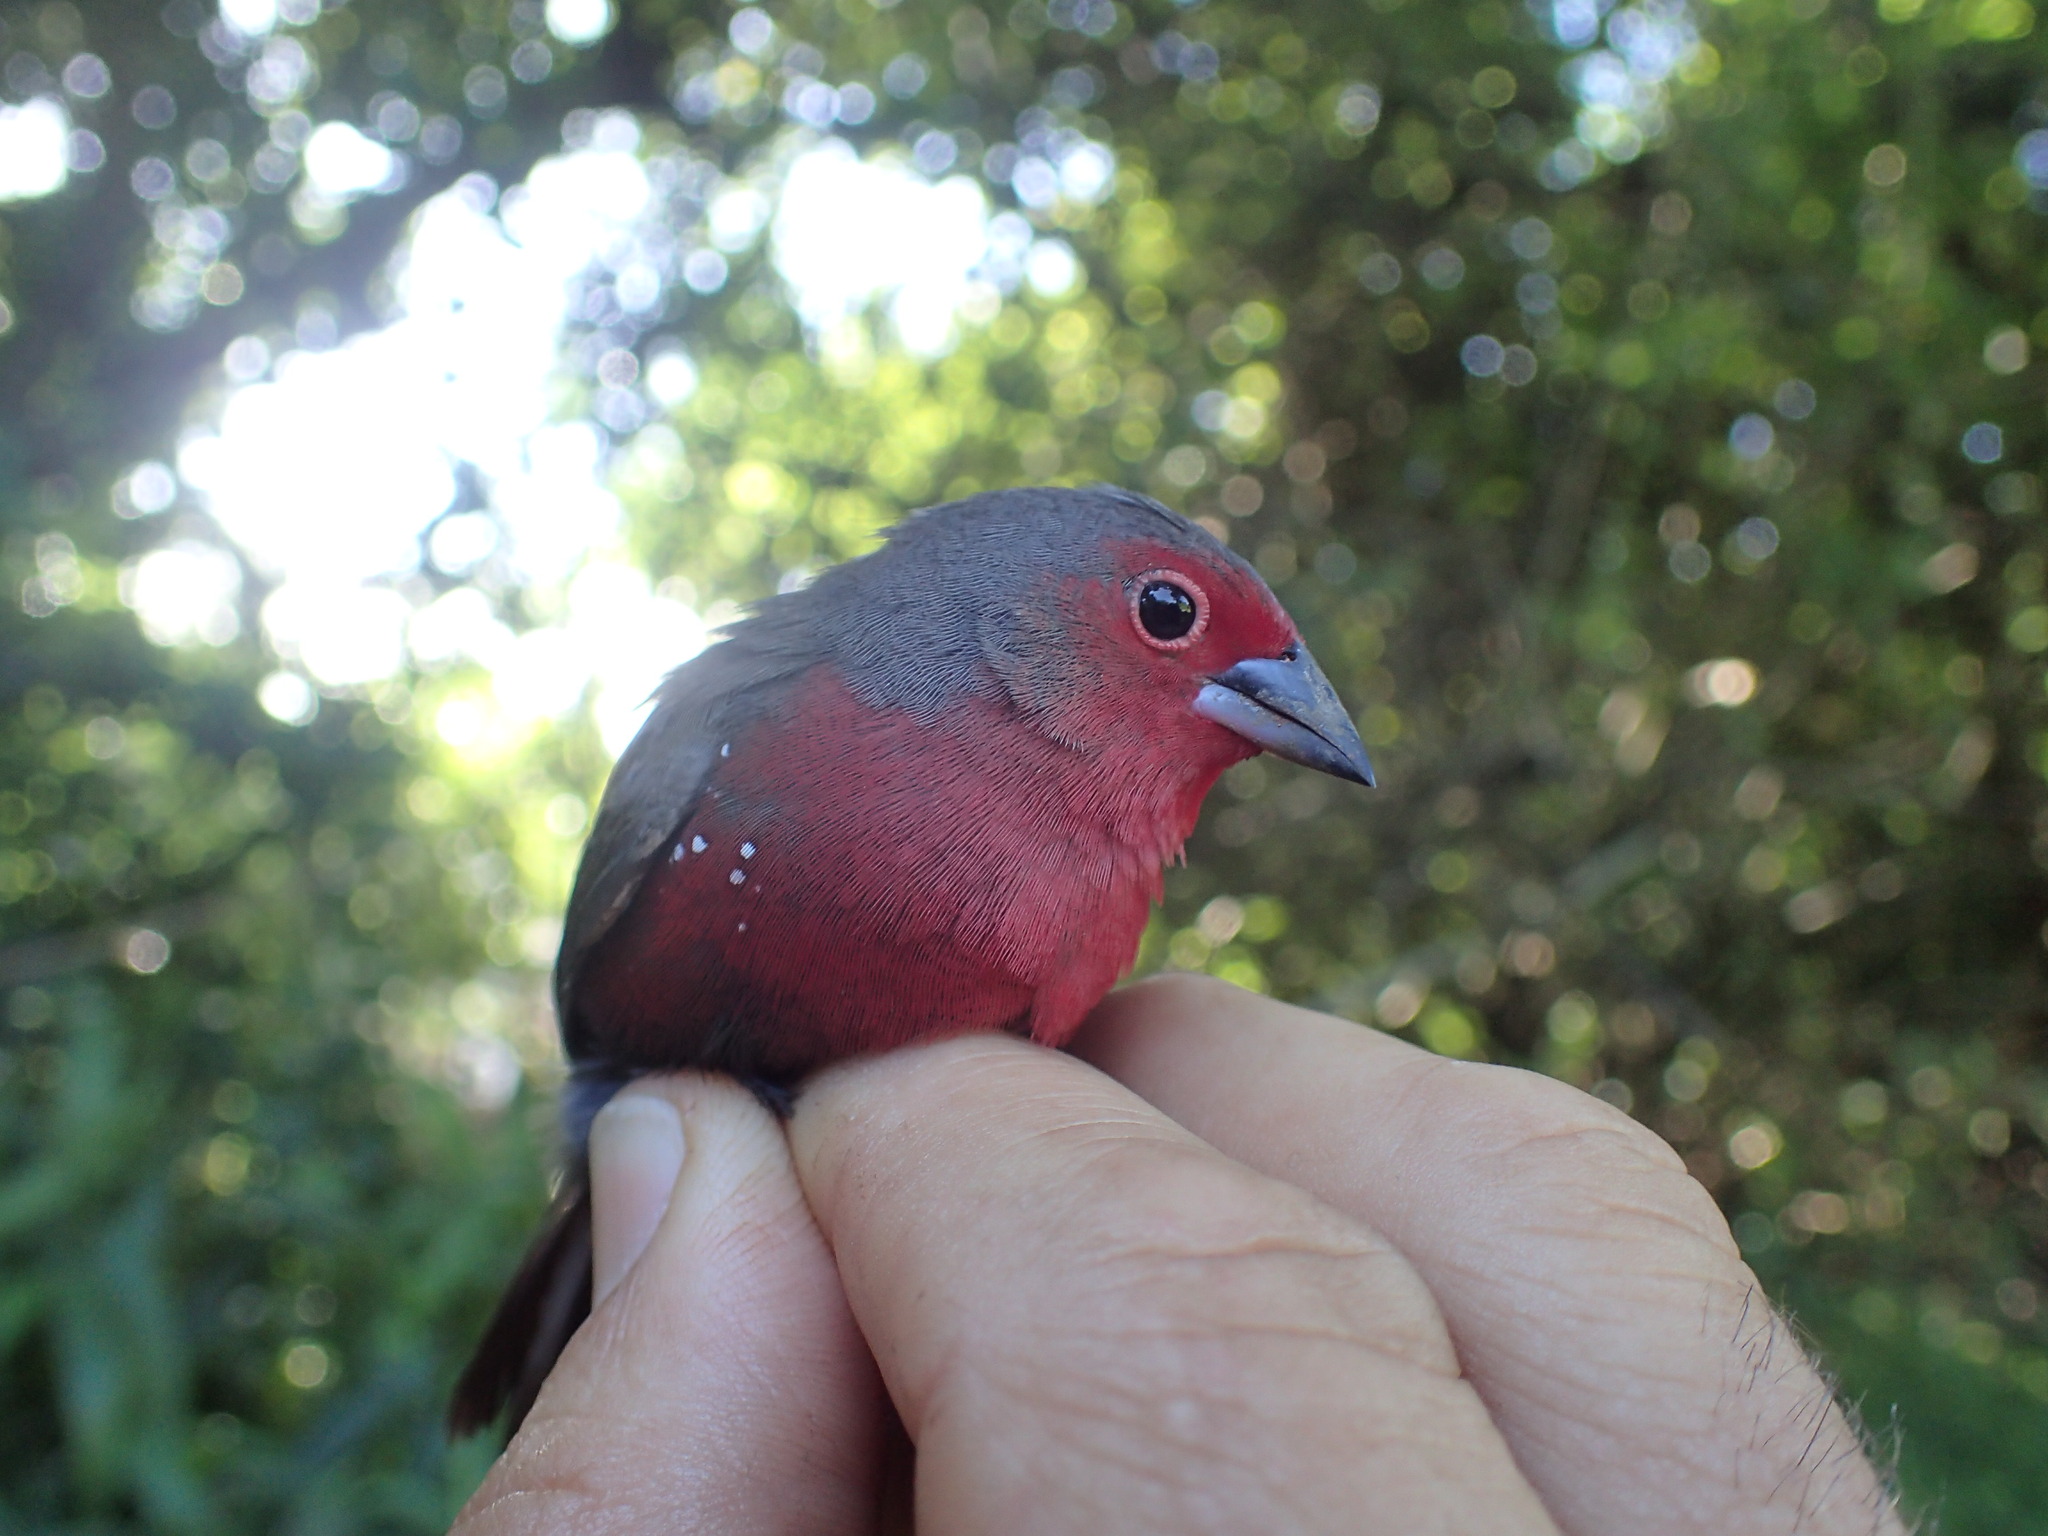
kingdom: Animalia
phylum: Chordata
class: Aves
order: Passeriformes
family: Estrildidae
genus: Lagonosticta
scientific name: Lagonosticta rubricata
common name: African firefinch
